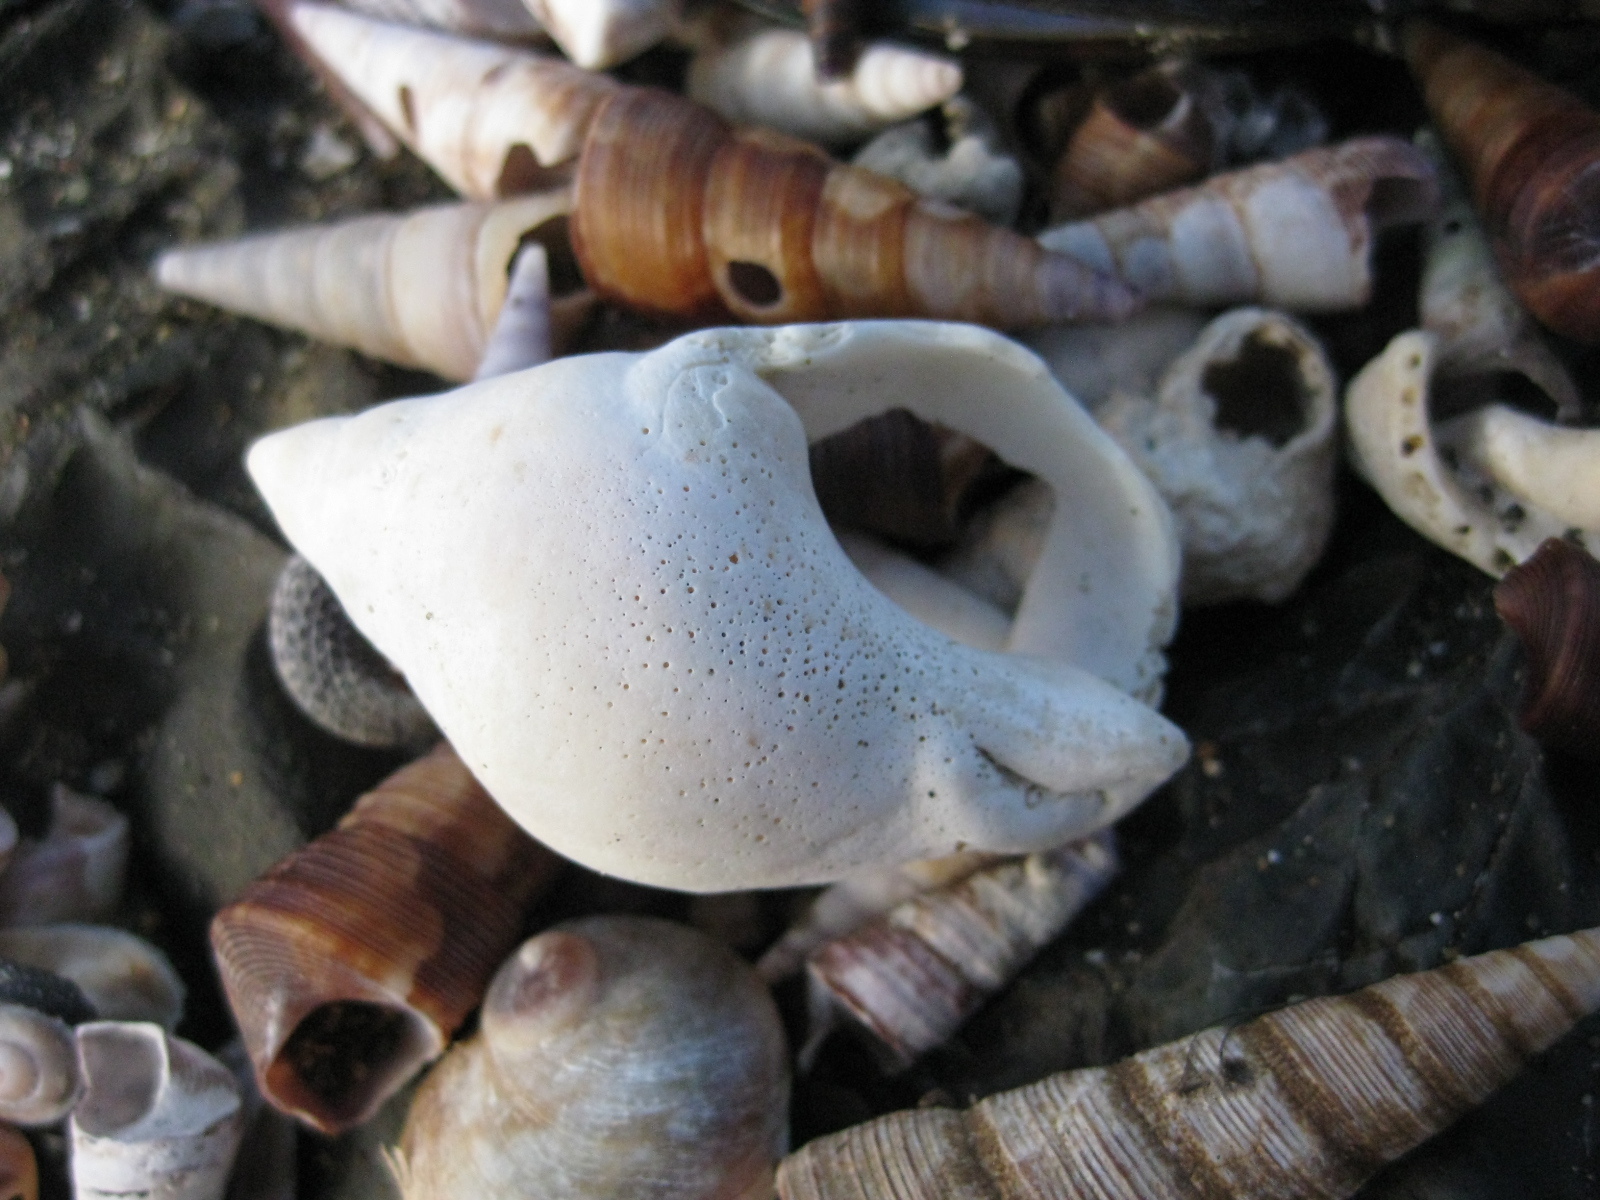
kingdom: Animalia
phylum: Mollusca
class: Gastropoda
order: Neogastropoda
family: Cominellidae
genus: Cominella
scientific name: Cominella adspersa
